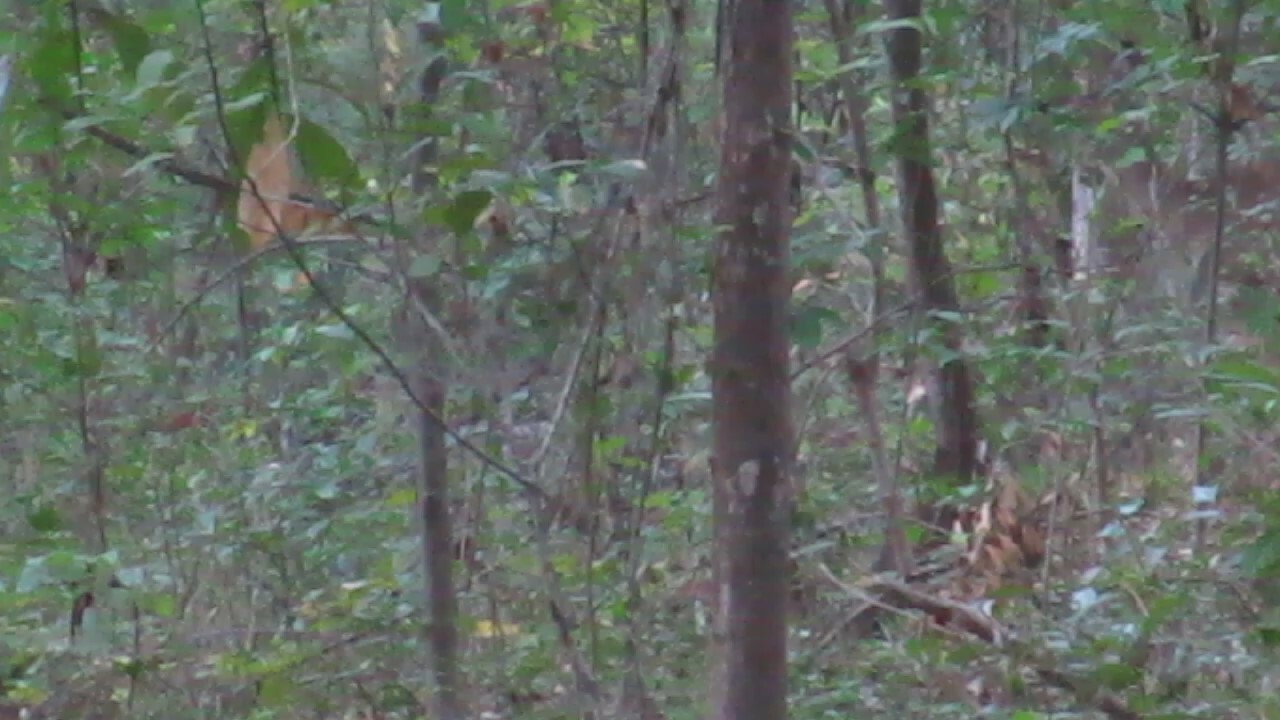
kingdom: Animalia
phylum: Chordata
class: Mammalia
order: Artiodactyla
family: Cervidae
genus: Odocoileus
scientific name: Odocoileus virginianus
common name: White-tailed deer
